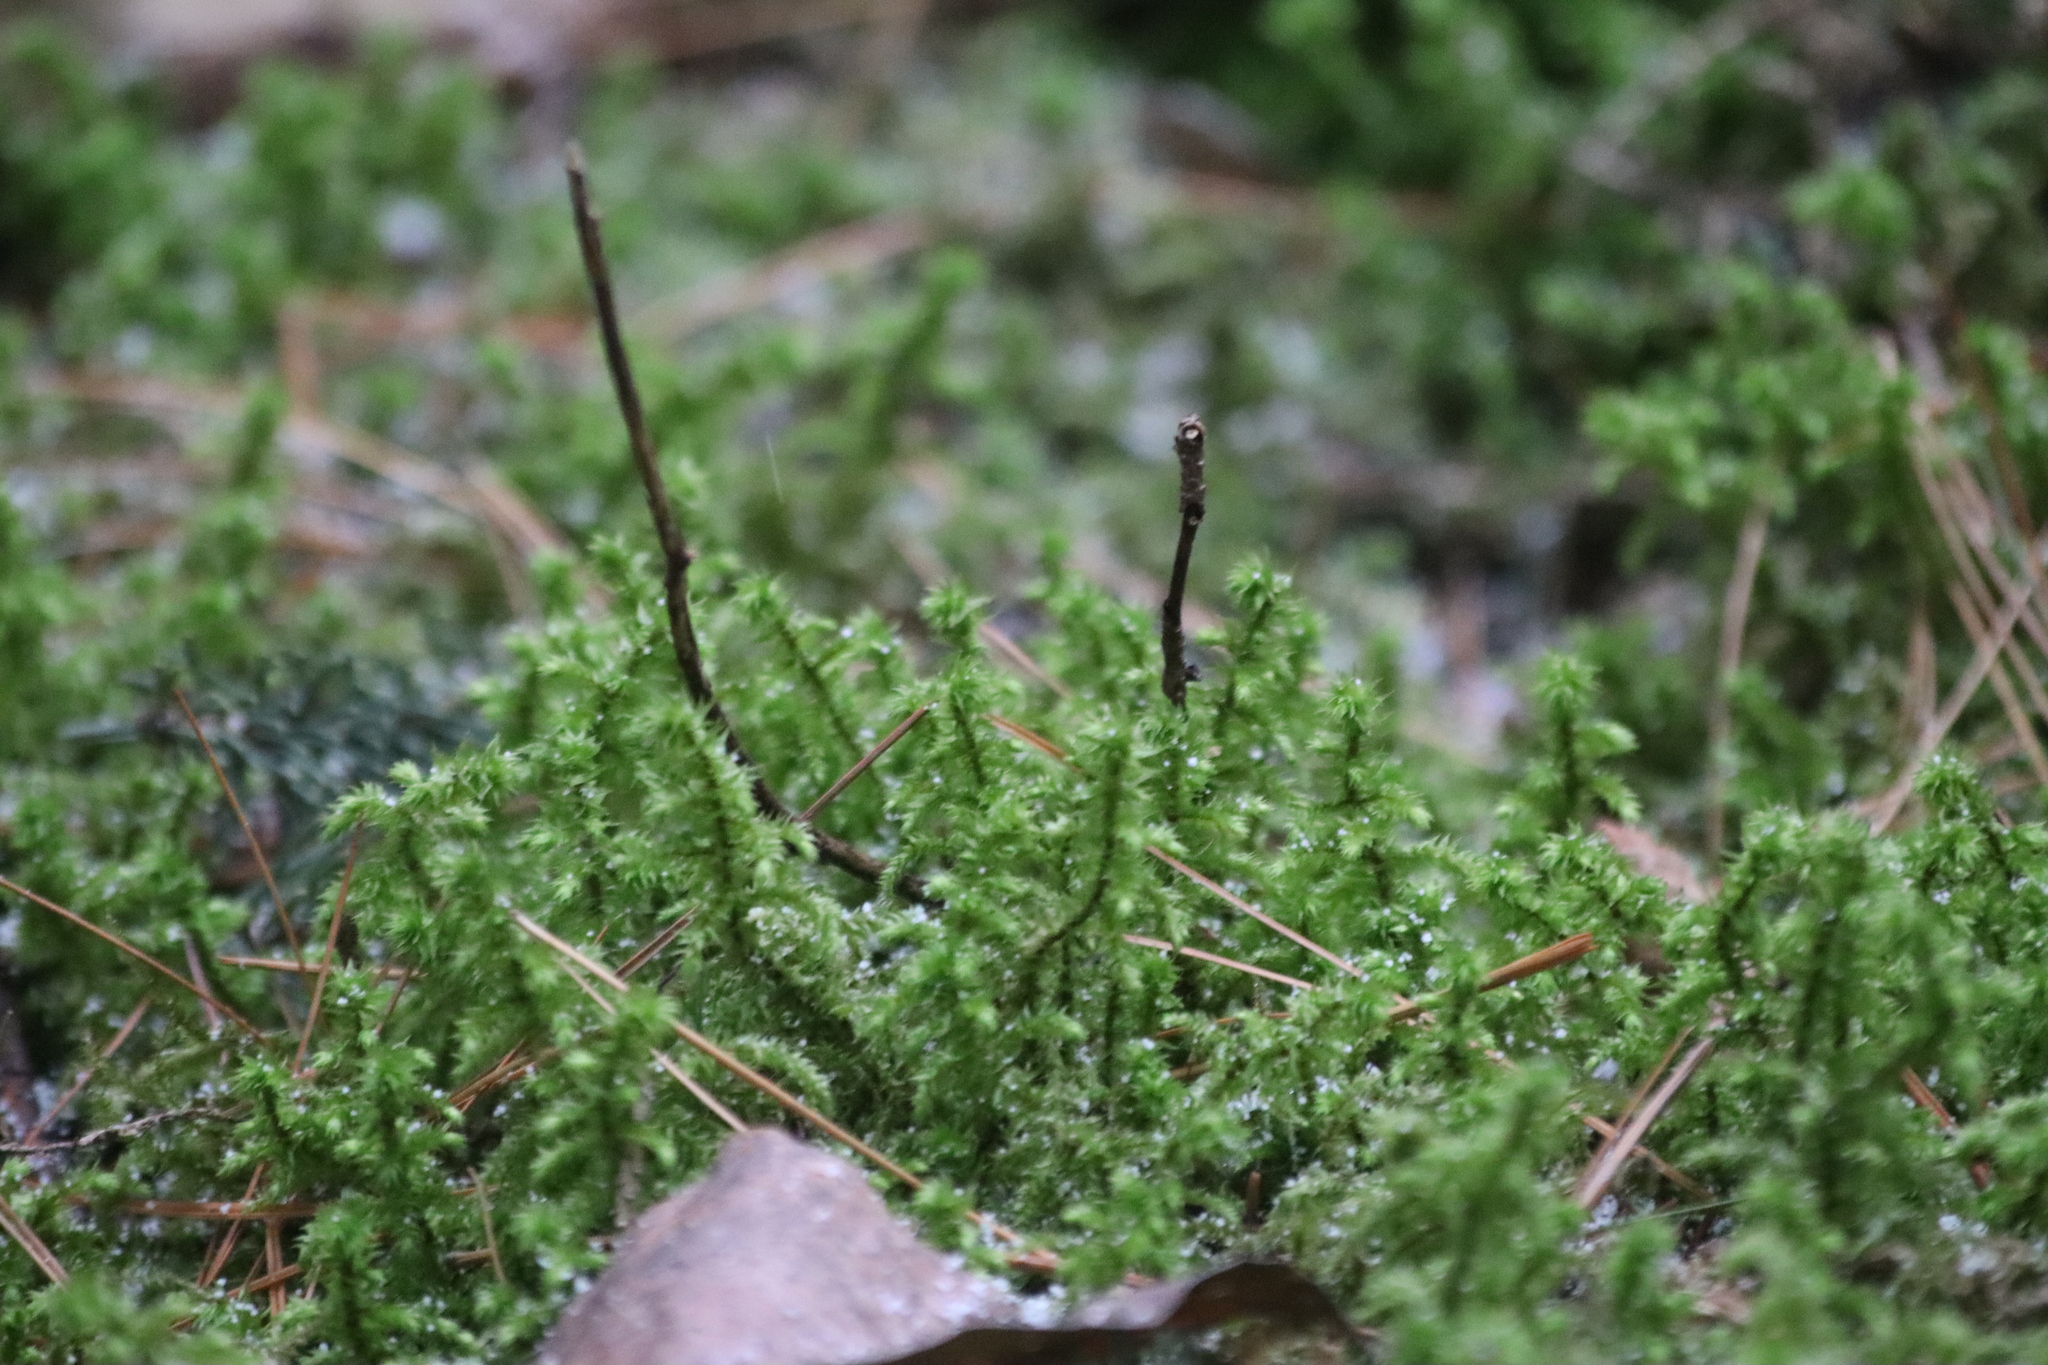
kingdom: Plantae
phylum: Bryophyta
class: Bryopsida
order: Hypnales
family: Hylocomiaceae
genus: Hylocomiadelphus
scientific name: Hylocomiadelphus triquetrus
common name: Rough goose neck moss
